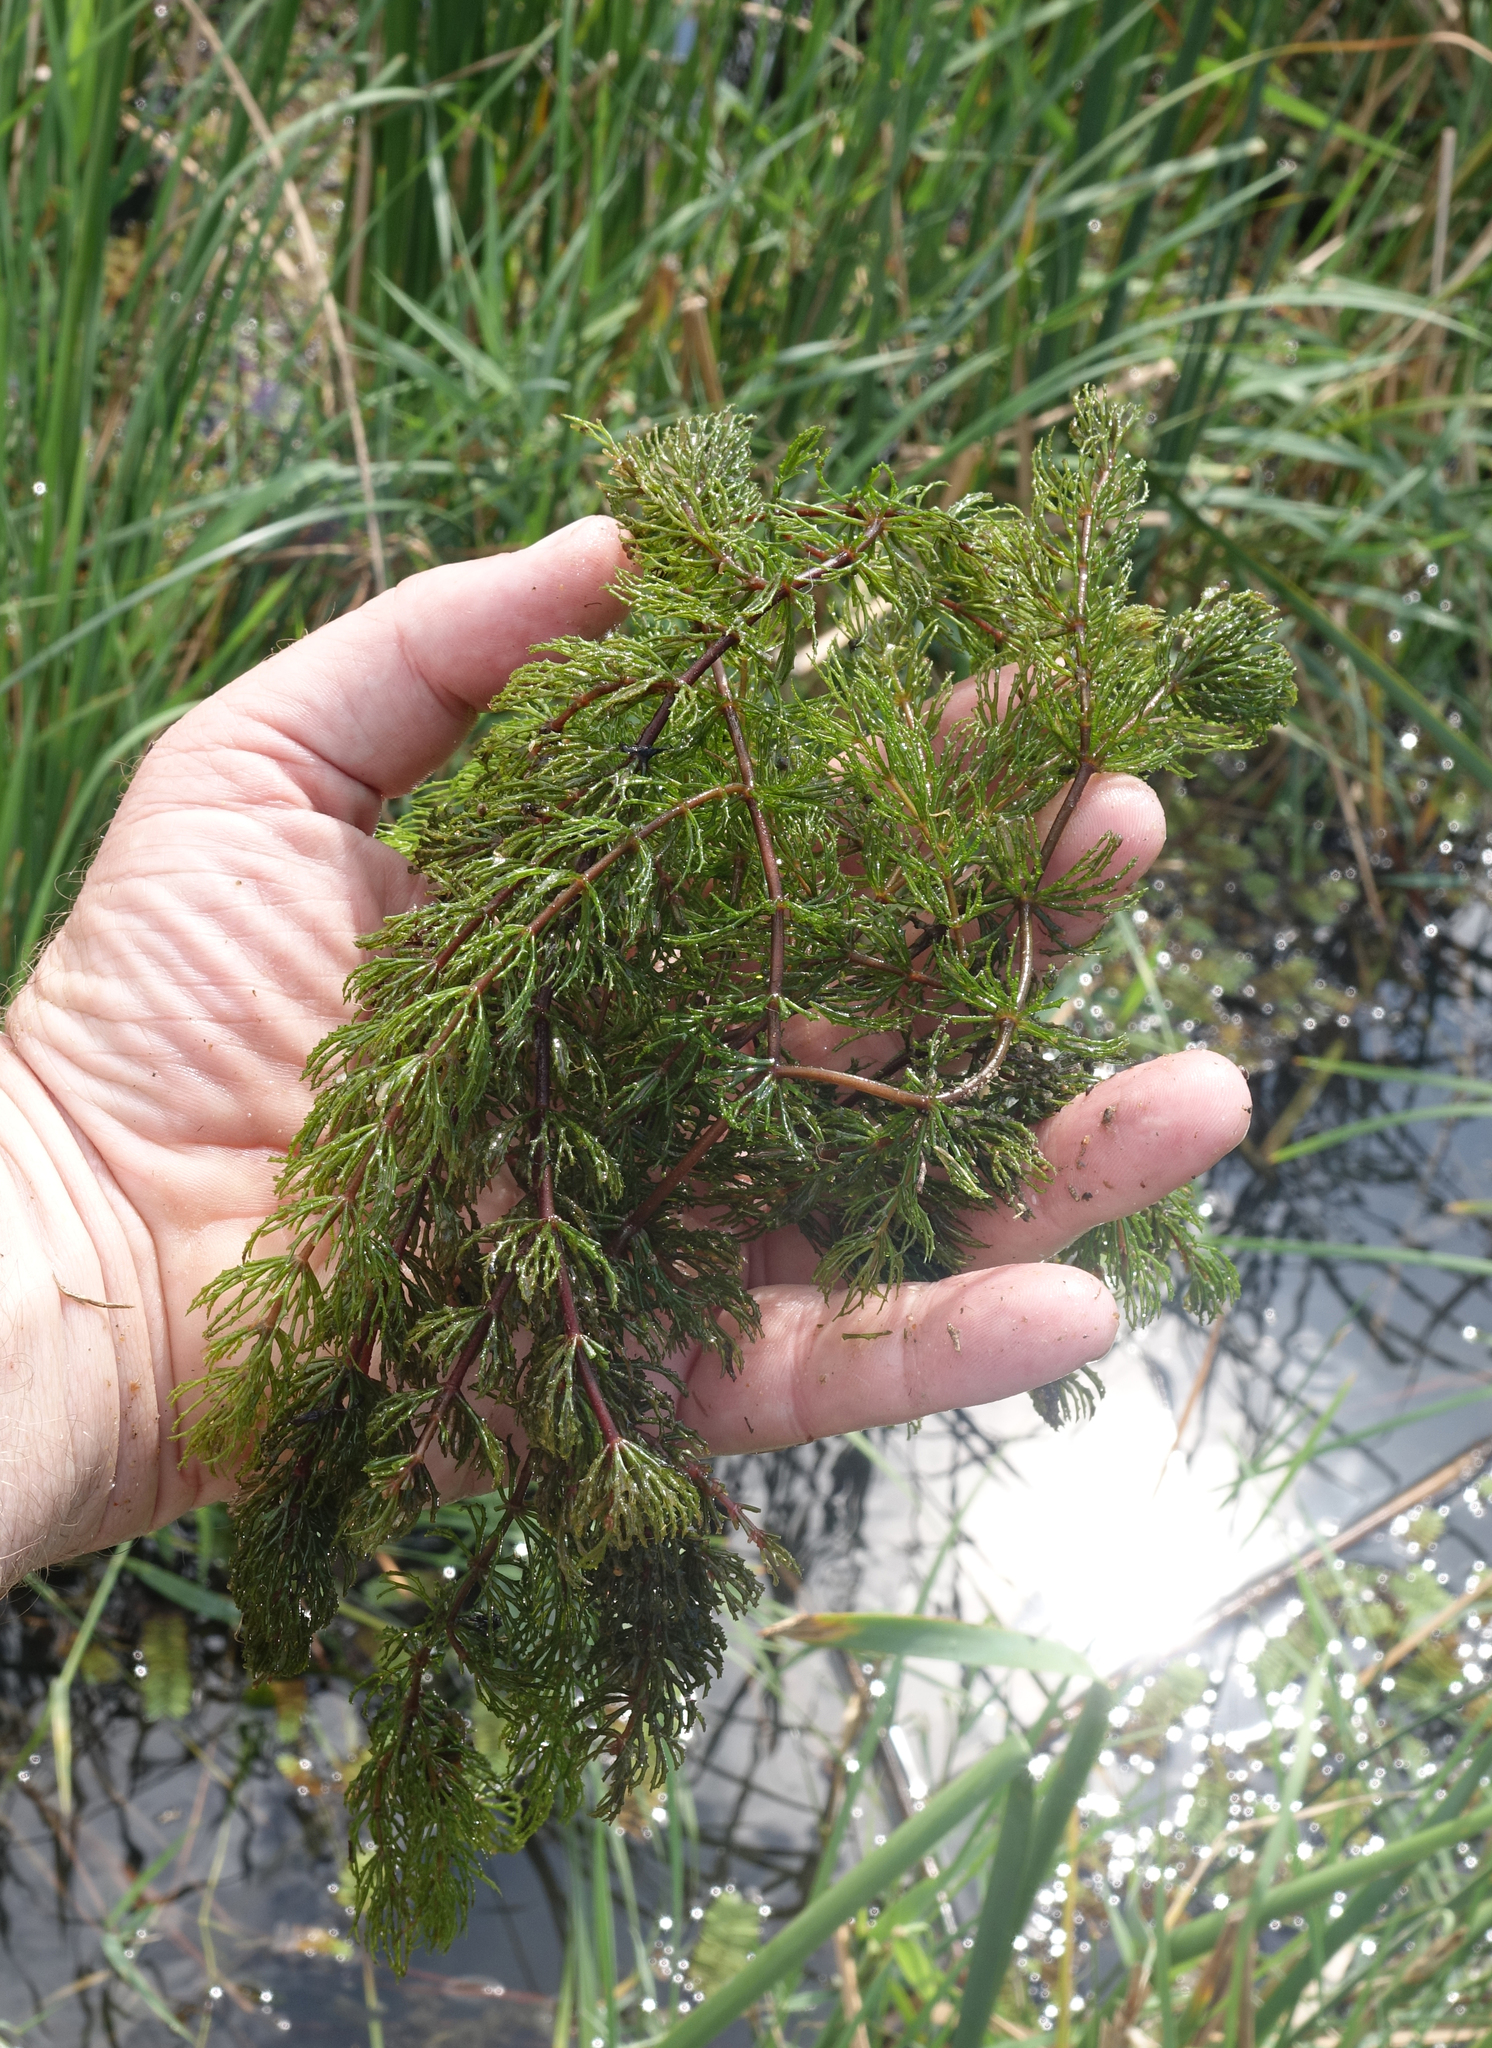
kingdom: Plantae
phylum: Tracheophyta
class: Magnoliopsida
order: Ceratophyllales
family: Ceratophyllaceae
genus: Ceratophyllum
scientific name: Ceratophyllum demersum
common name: Rigid hornwort
